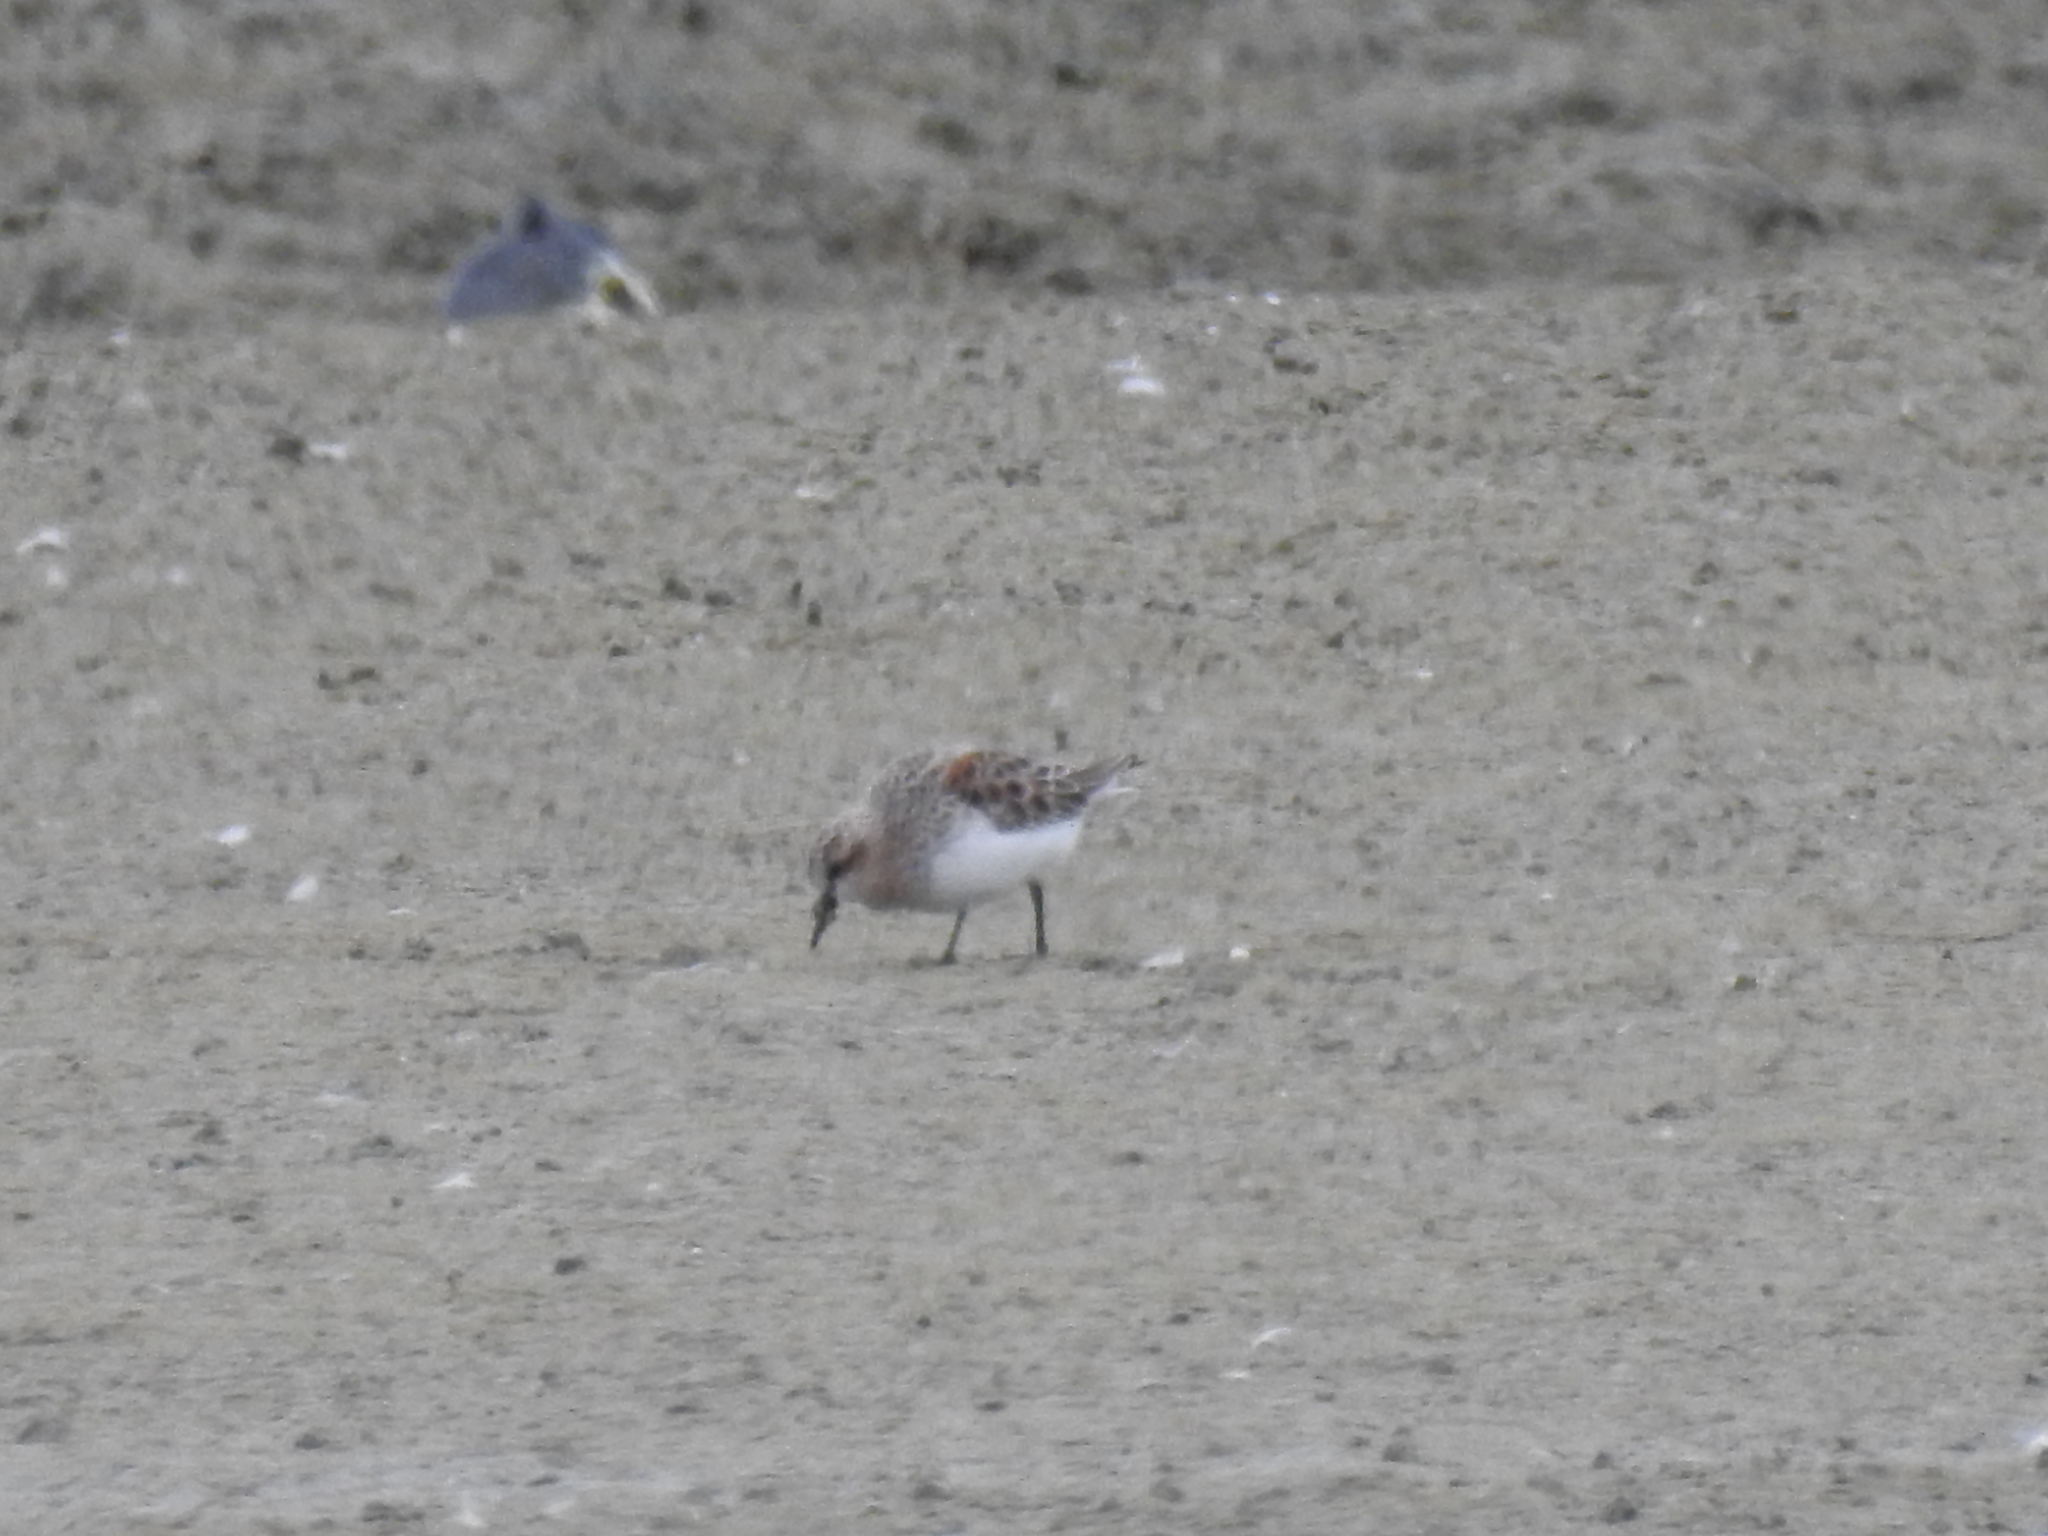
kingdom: Animalia
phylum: Chordata
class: Aves
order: Charadriiformes
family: Scolopacidae
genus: Calidris
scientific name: Calidris ruficollis
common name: Red-necked stint
